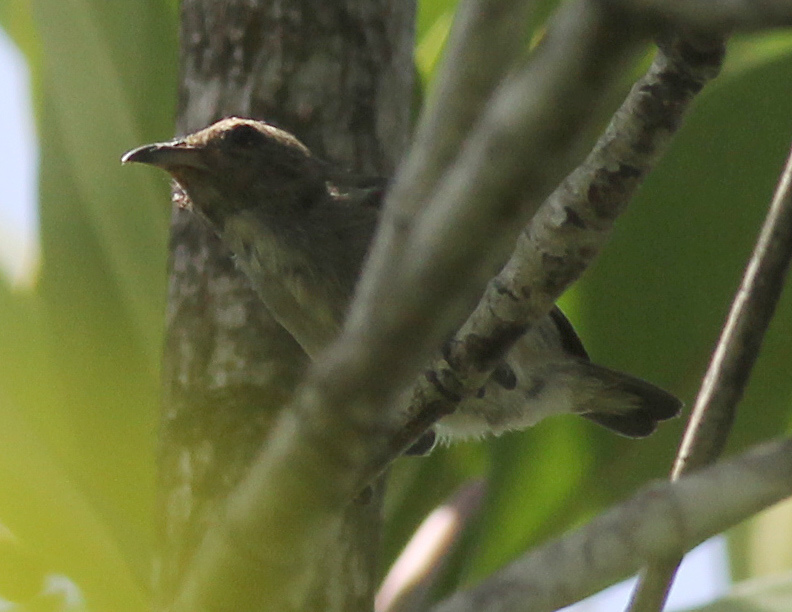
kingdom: Animalia
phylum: Chordata
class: Aves
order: Passeriformes
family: Dicaeidae
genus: Dicaeum
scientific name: Dicaeum minullum
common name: Plain flowerpecker
